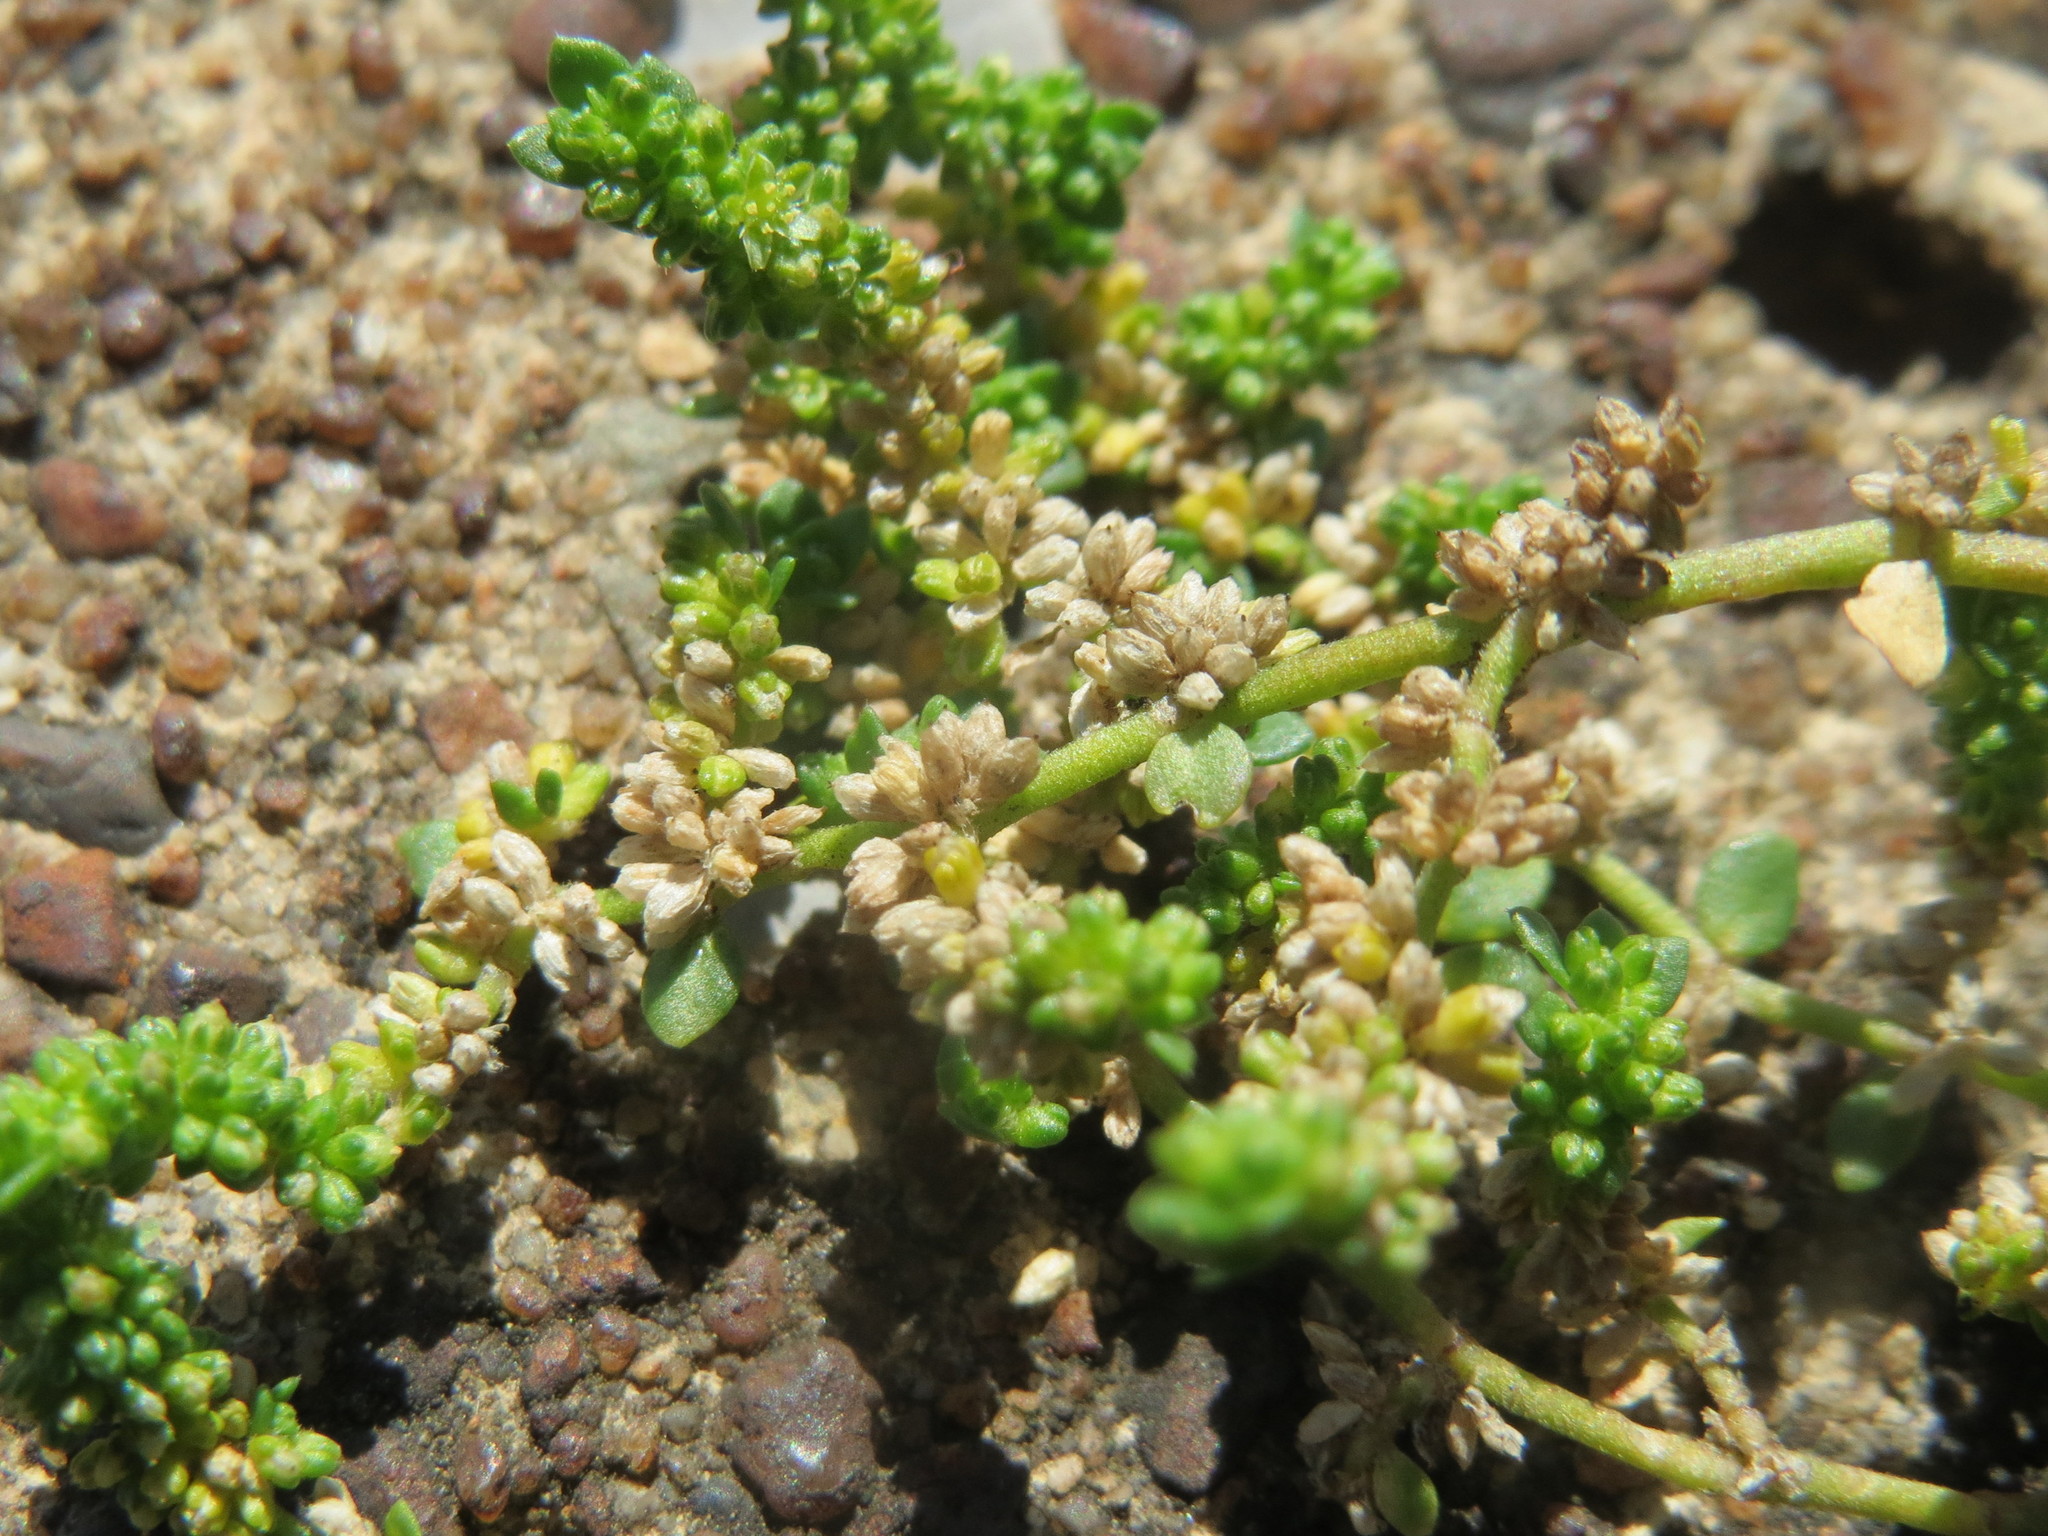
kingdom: Plantae
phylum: Tracheophyta
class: Magnoliopsida
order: Caryophyllales
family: Caryophyllaceae
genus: Herniaria
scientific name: Herniaria glabra
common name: Smooth rupturewort
